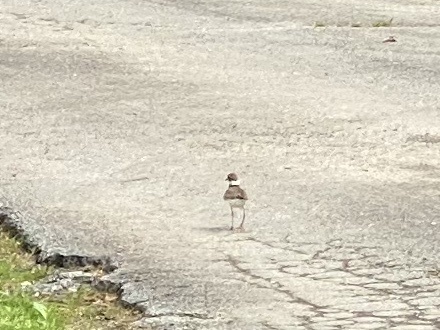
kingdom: Animalia
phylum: Chordata
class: Aves
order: Charadriiformes
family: Charadriidae
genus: Charadrius
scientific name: Charadrius vociferus
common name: Killdeer
